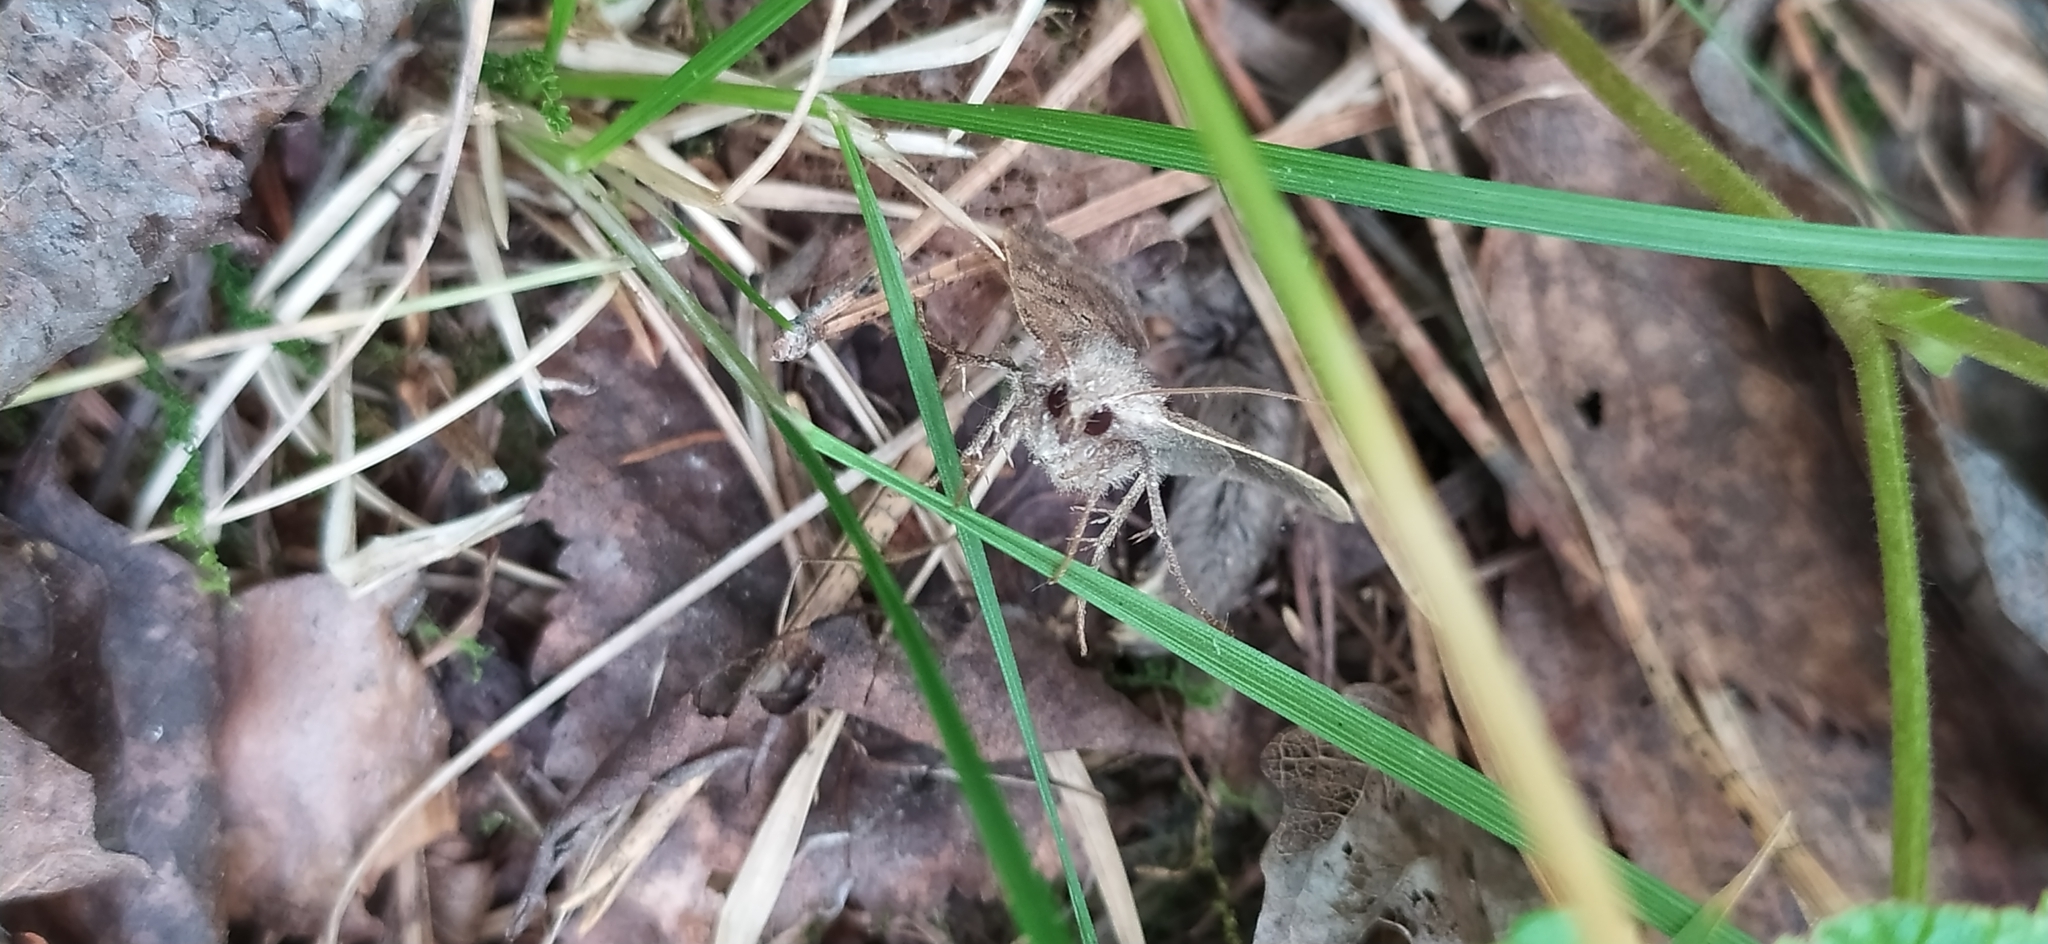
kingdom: Animalia
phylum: Arthropoda
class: Insecta
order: Lepidoptera
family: Noctuidae
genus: Diarsia
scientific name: Diarsia dahlii
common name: Barred chestnut
